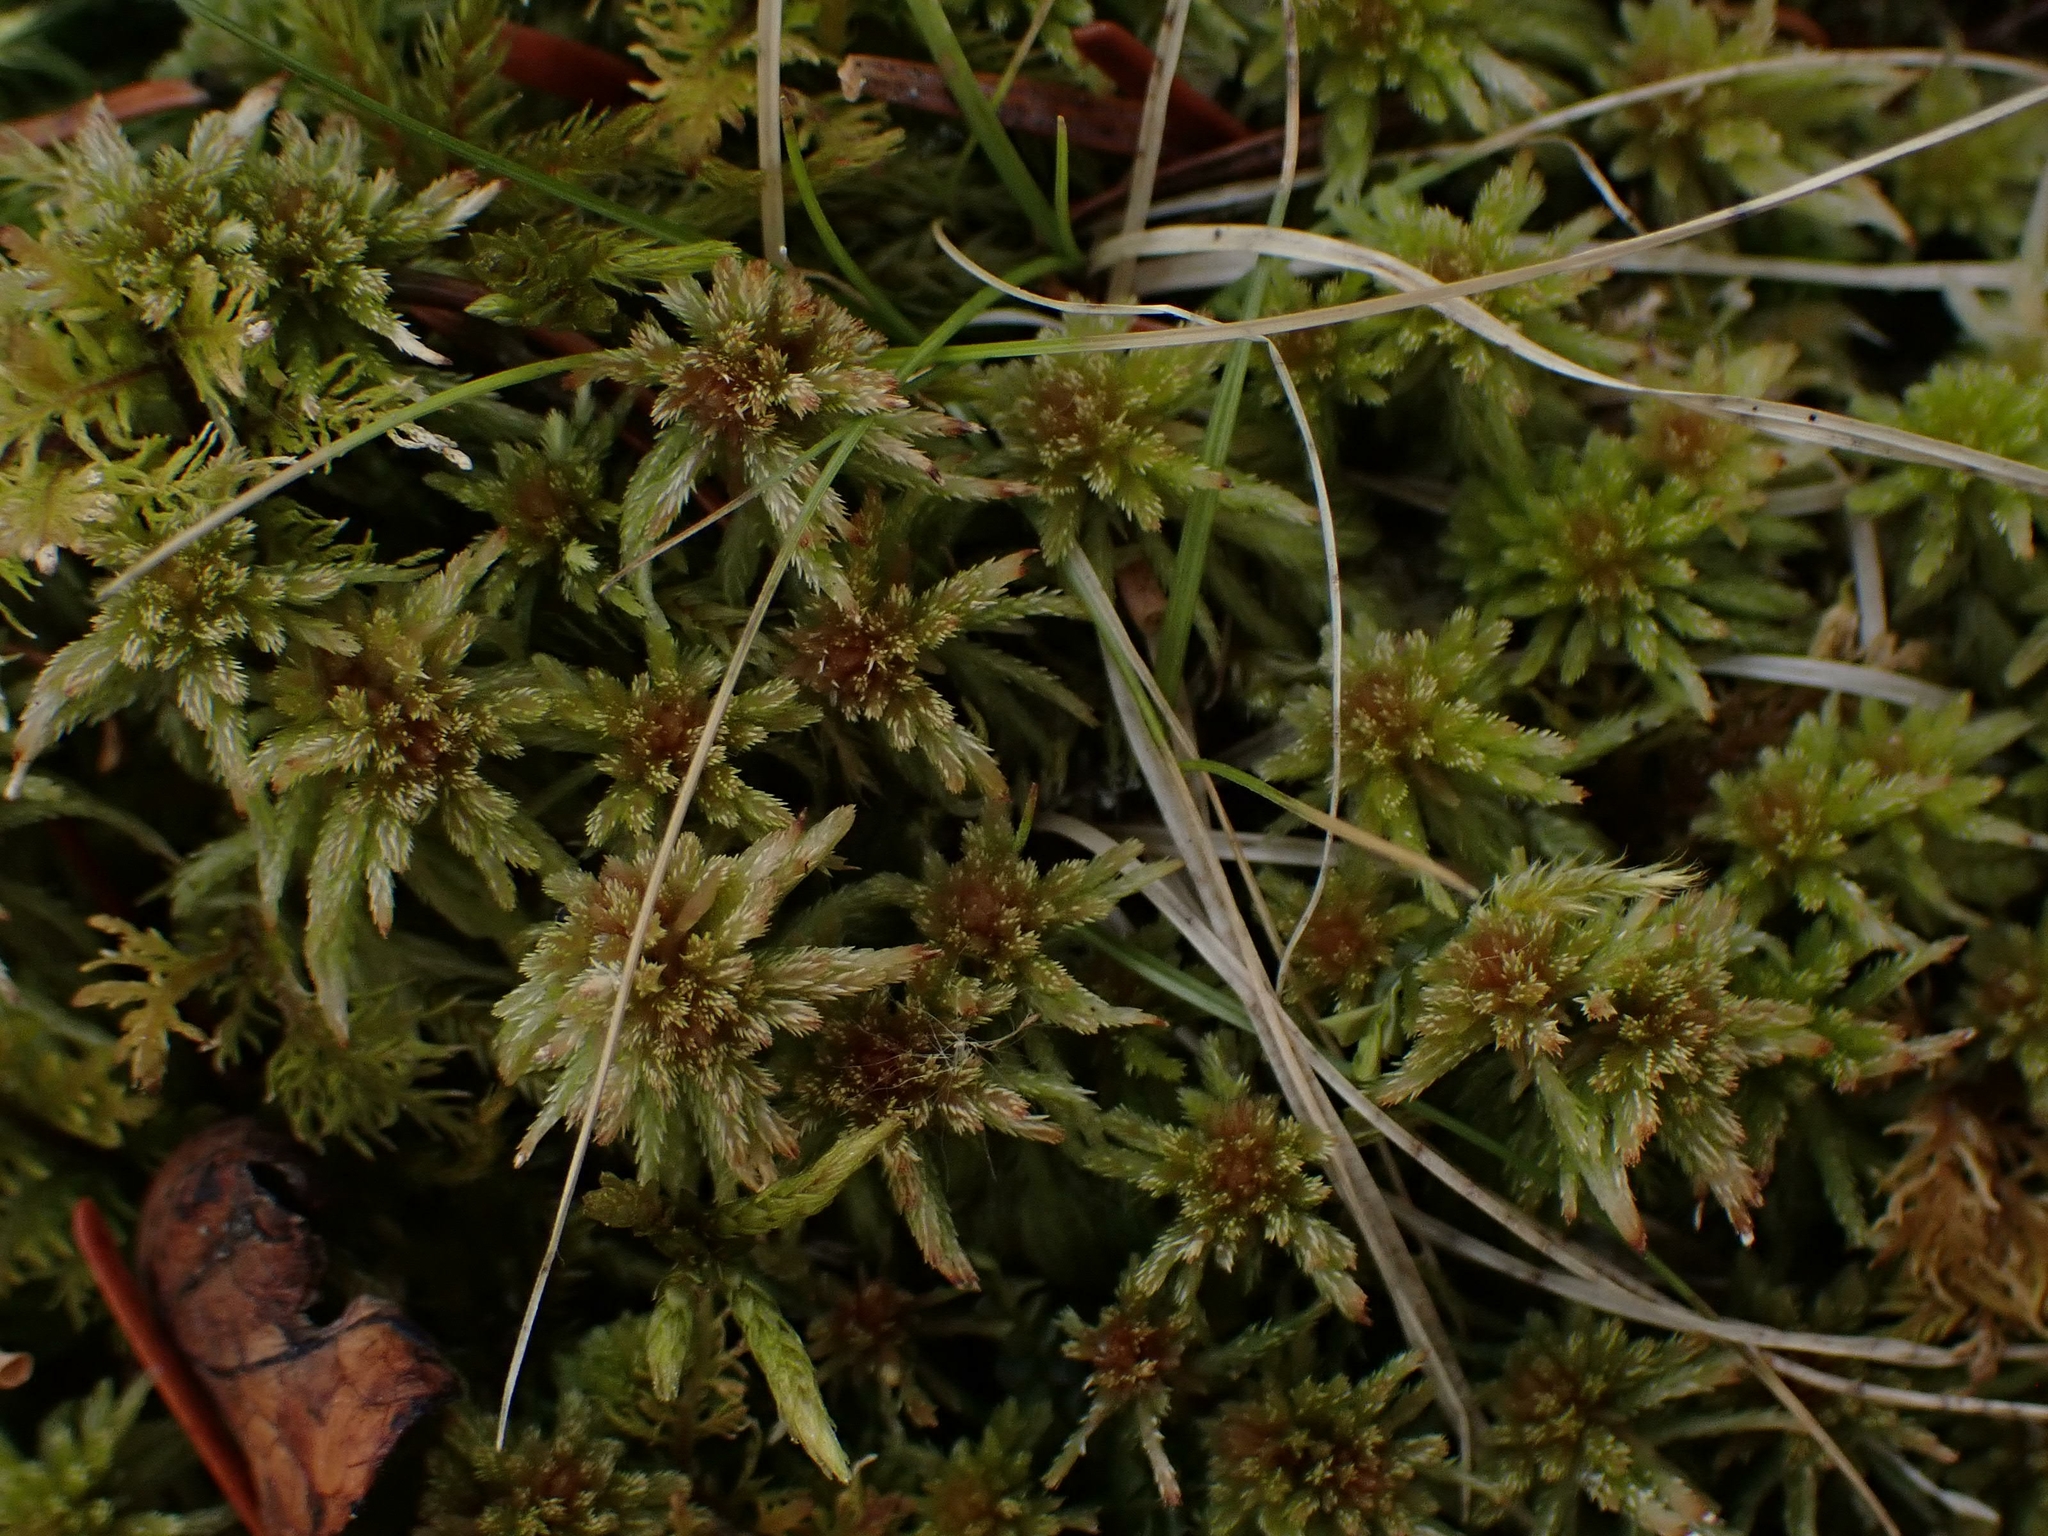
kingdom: Plantae
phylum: Bryophyta
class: Sphagnopsida
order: Sphagnales
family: Sphagnaceae
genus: Sphagnum
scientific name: Sphagnum russowii
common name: Russow's peat moss
